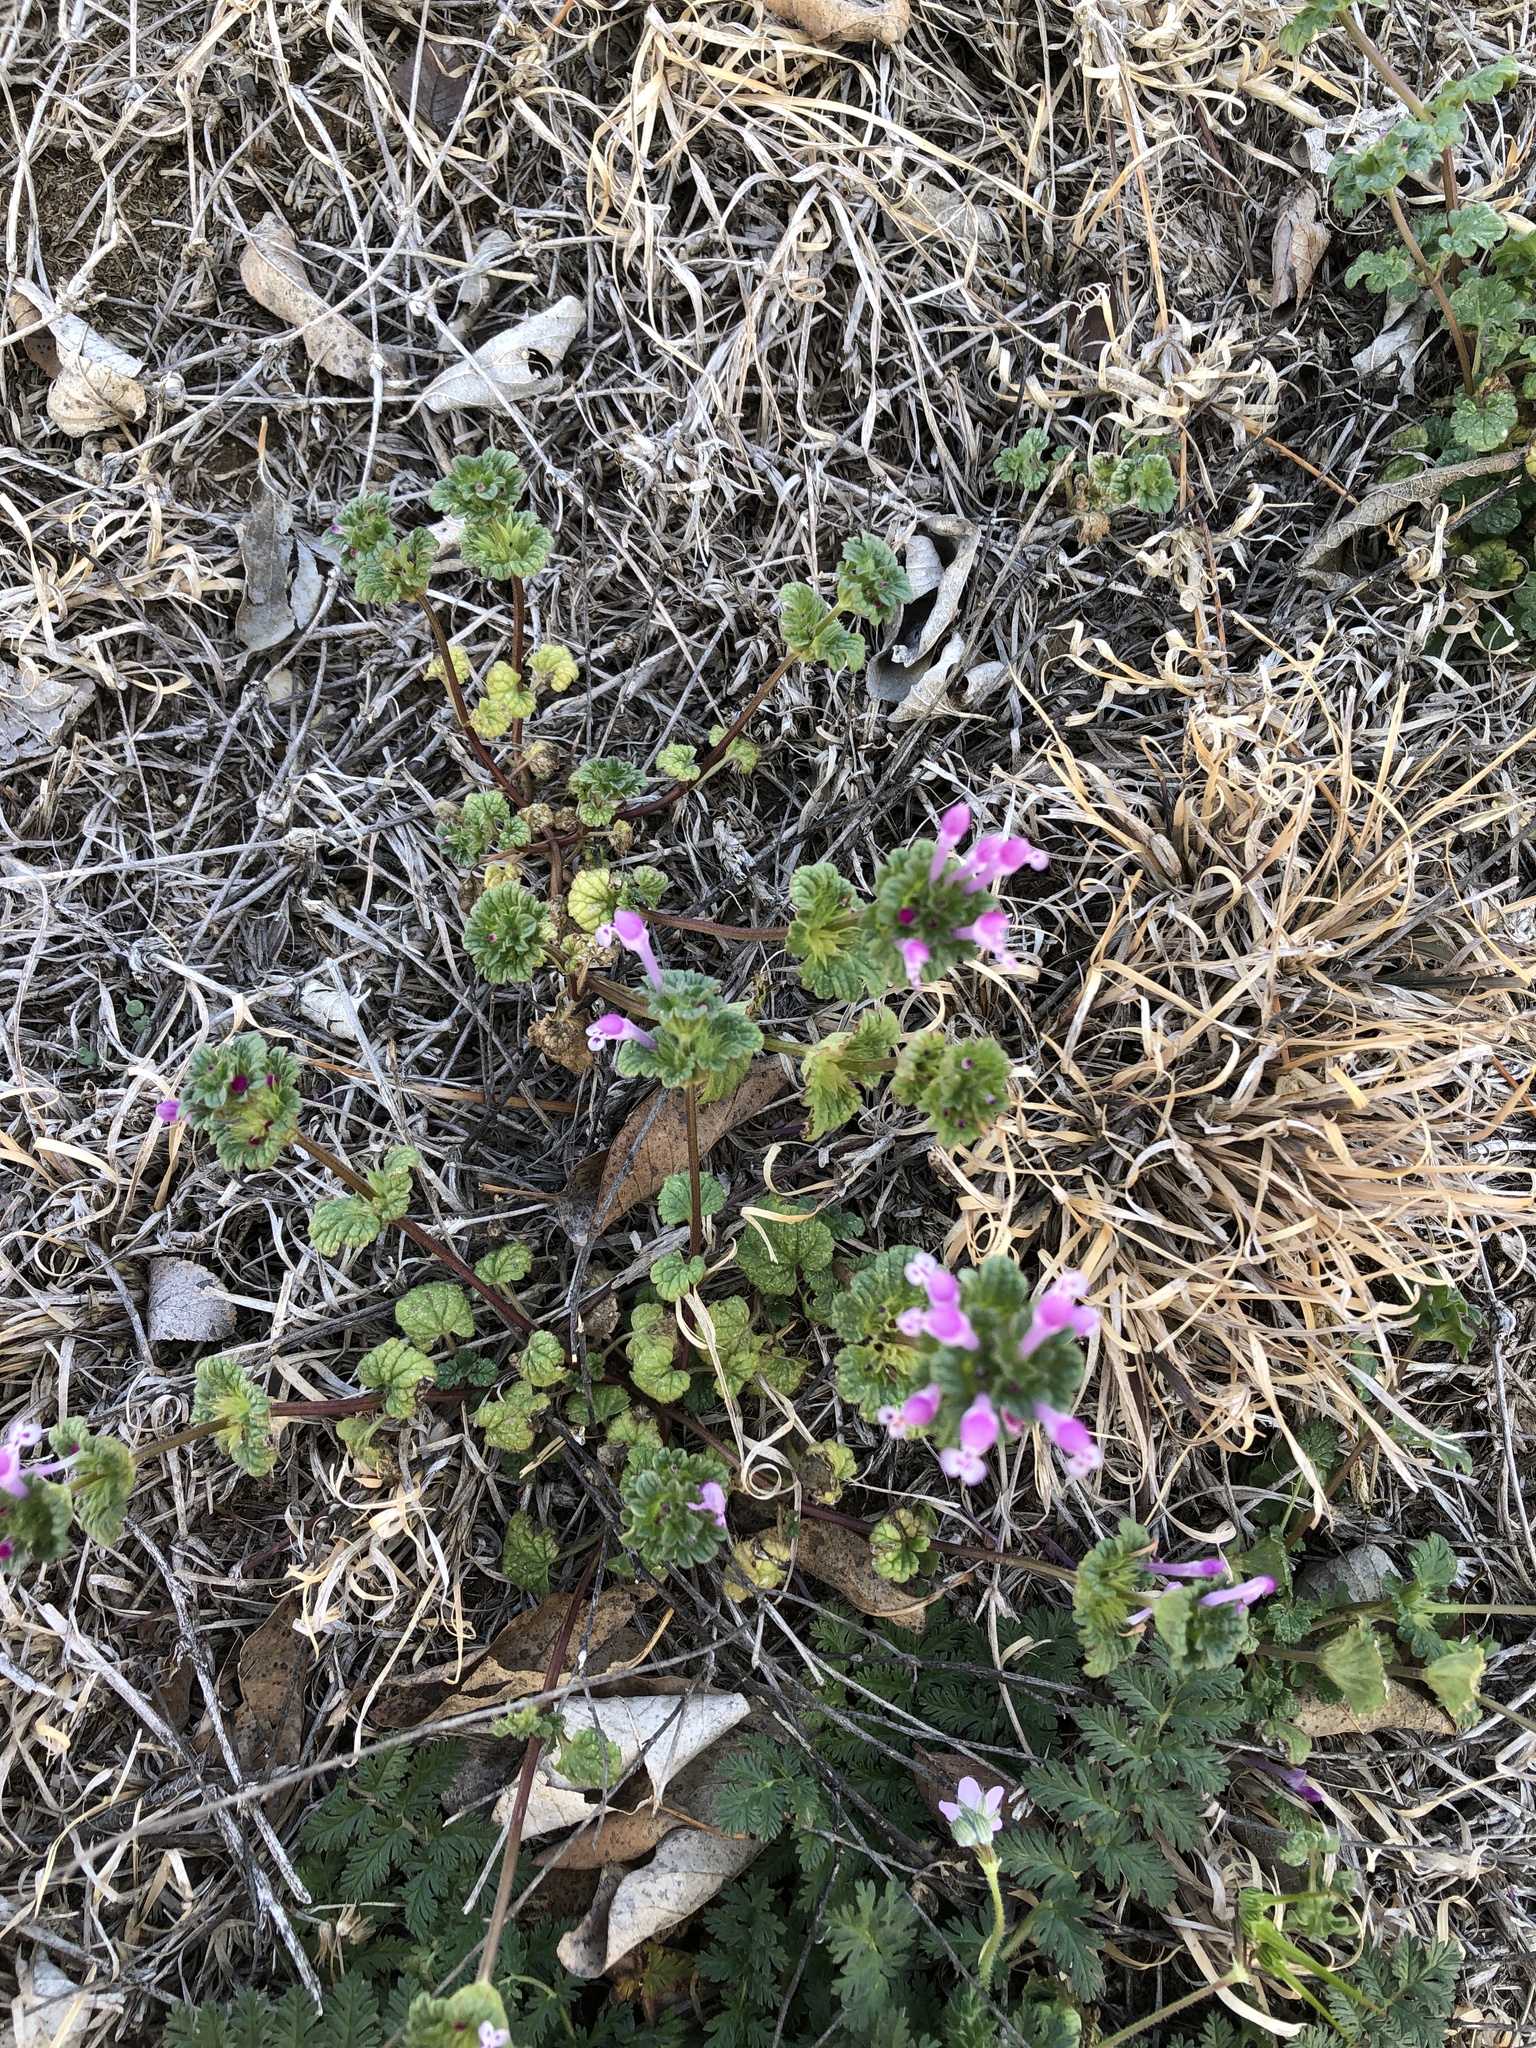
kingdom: Plantae
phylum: Tracheophyta
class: Magnoliopsida
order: Lamiales
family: Lamiaceae
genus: Lamium
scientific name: Lamium amplexicaule
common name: Henbit dead-nettle
